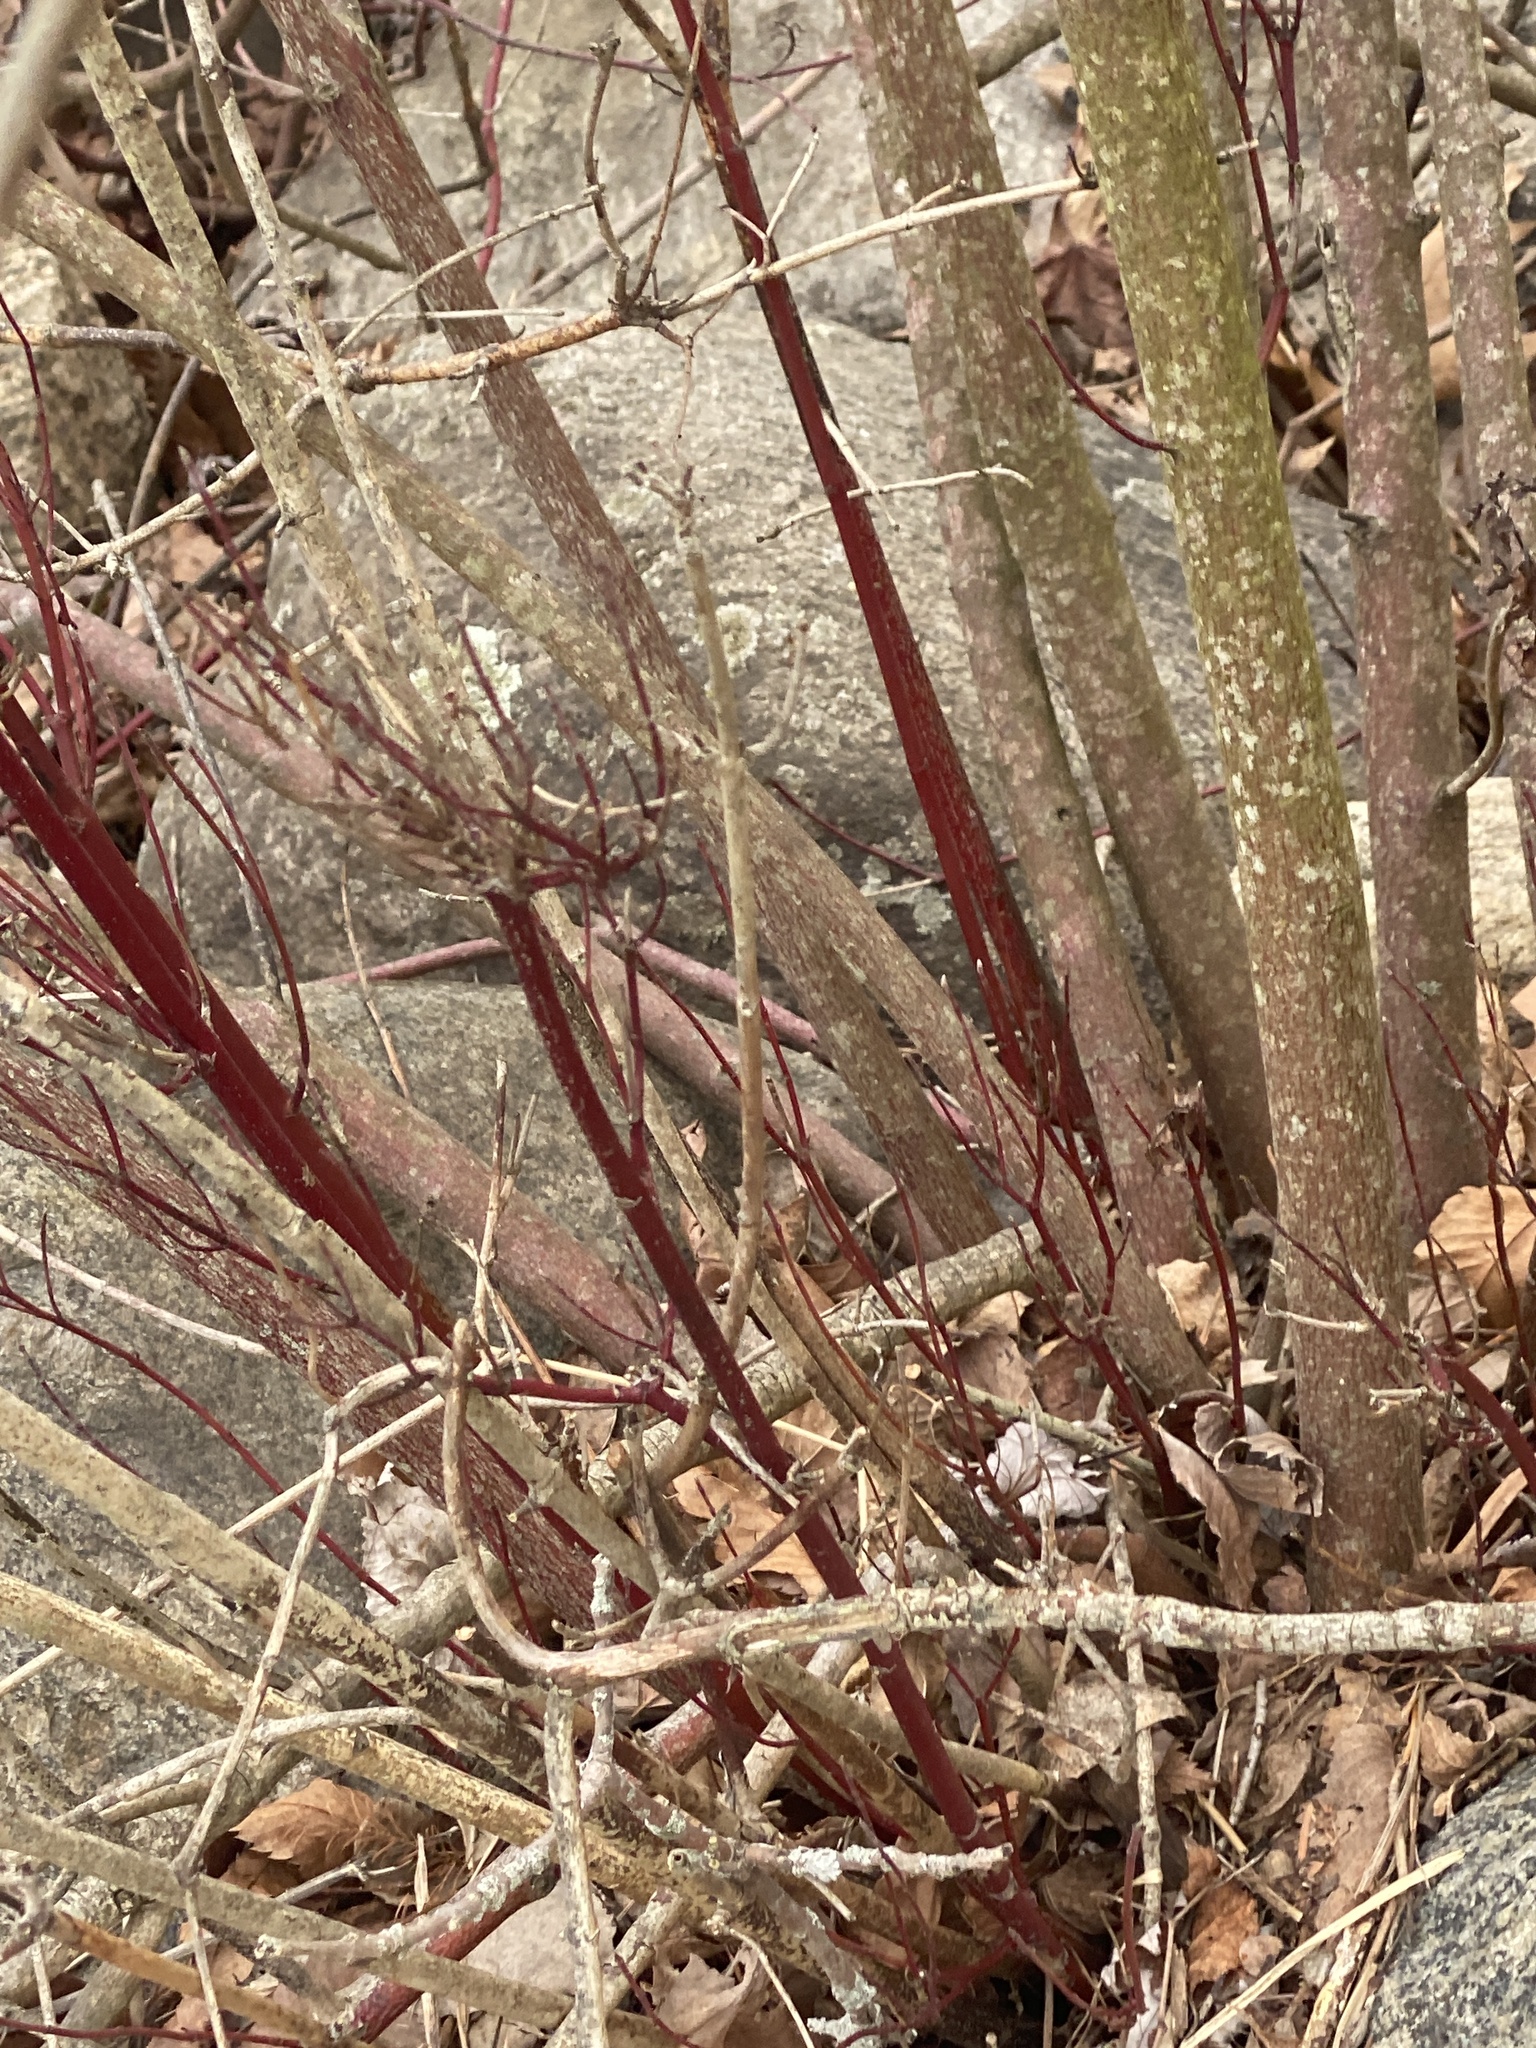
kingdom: Plantae
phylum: Tracheophyta
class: Magnoliopsida
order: Cornales
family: Cornaceae
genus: Cornus
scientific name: Cornus amomum
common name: Silky dogwood
